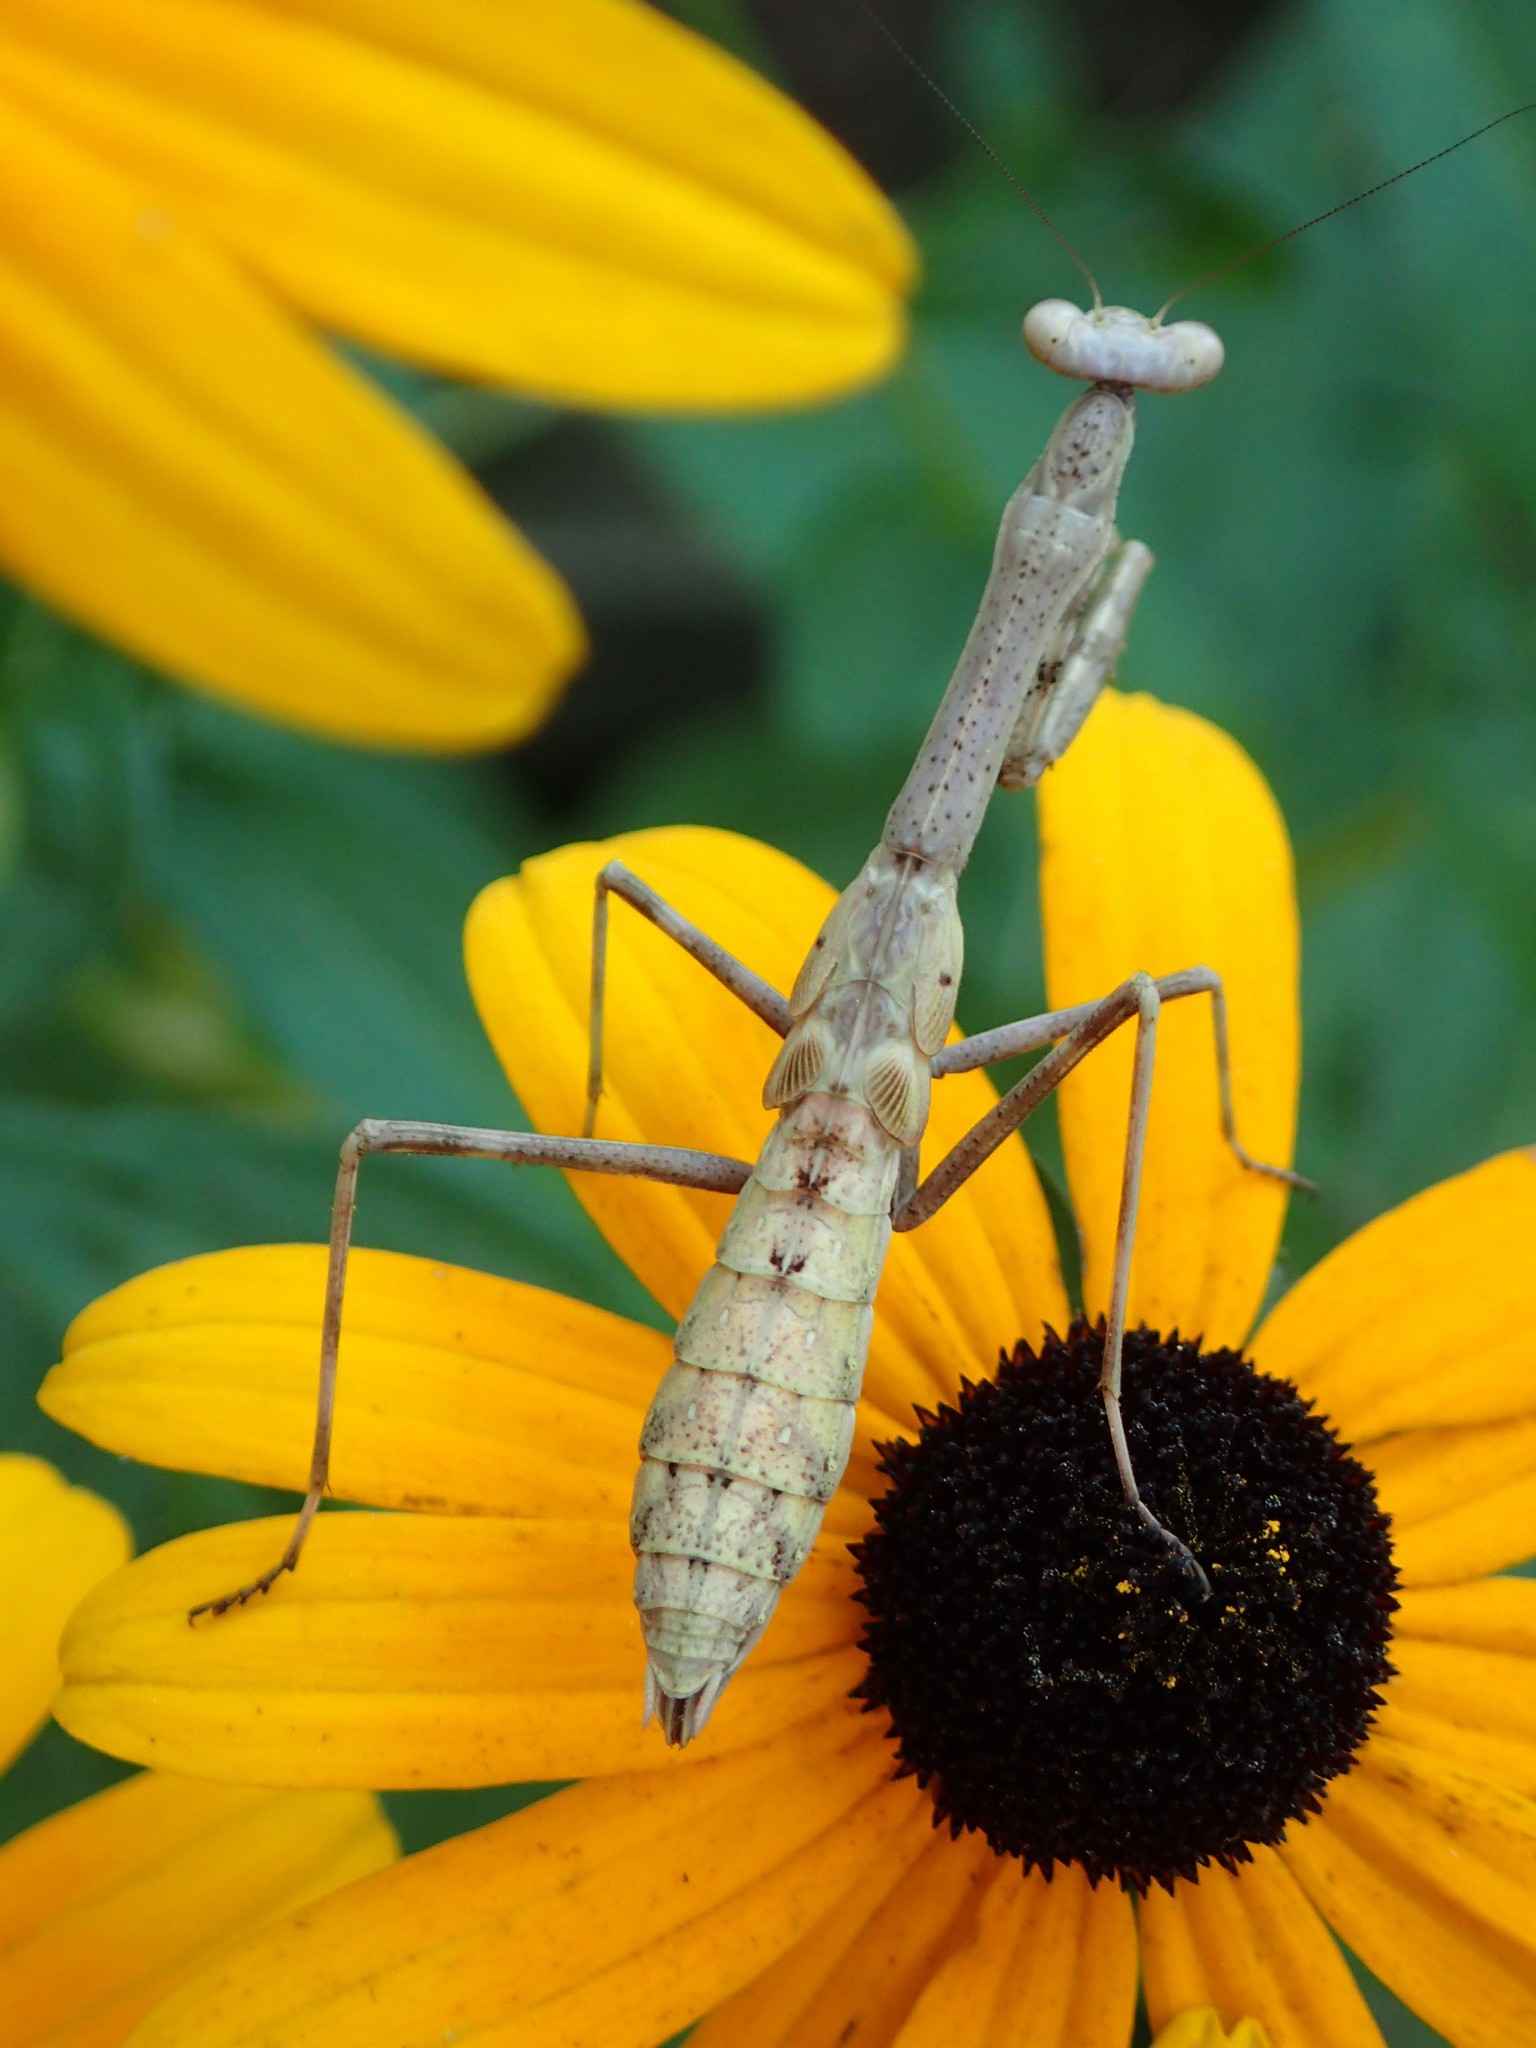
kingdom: Animalia
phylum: Arthropoda
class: Insecta
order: Mantodea
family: Mantidae
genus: Stagmomantis
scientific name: Stagmomantis carolina
